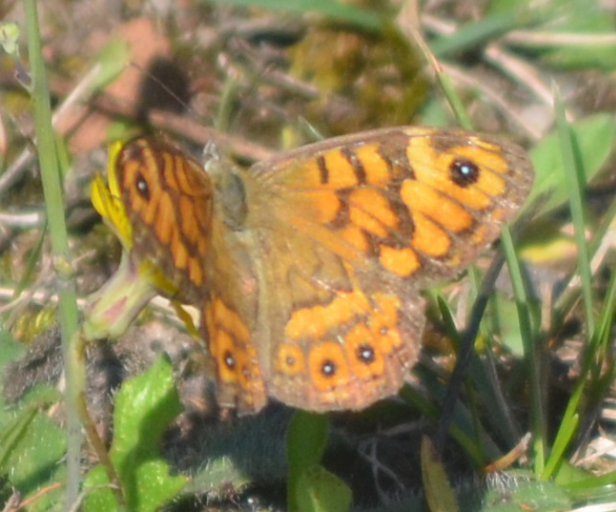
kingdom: Animalia
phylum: Arthropoda
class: Insecta
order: Lepidoptera
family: Nymphalidae
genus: Pararge
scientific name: Pararge Lasiommata megera
